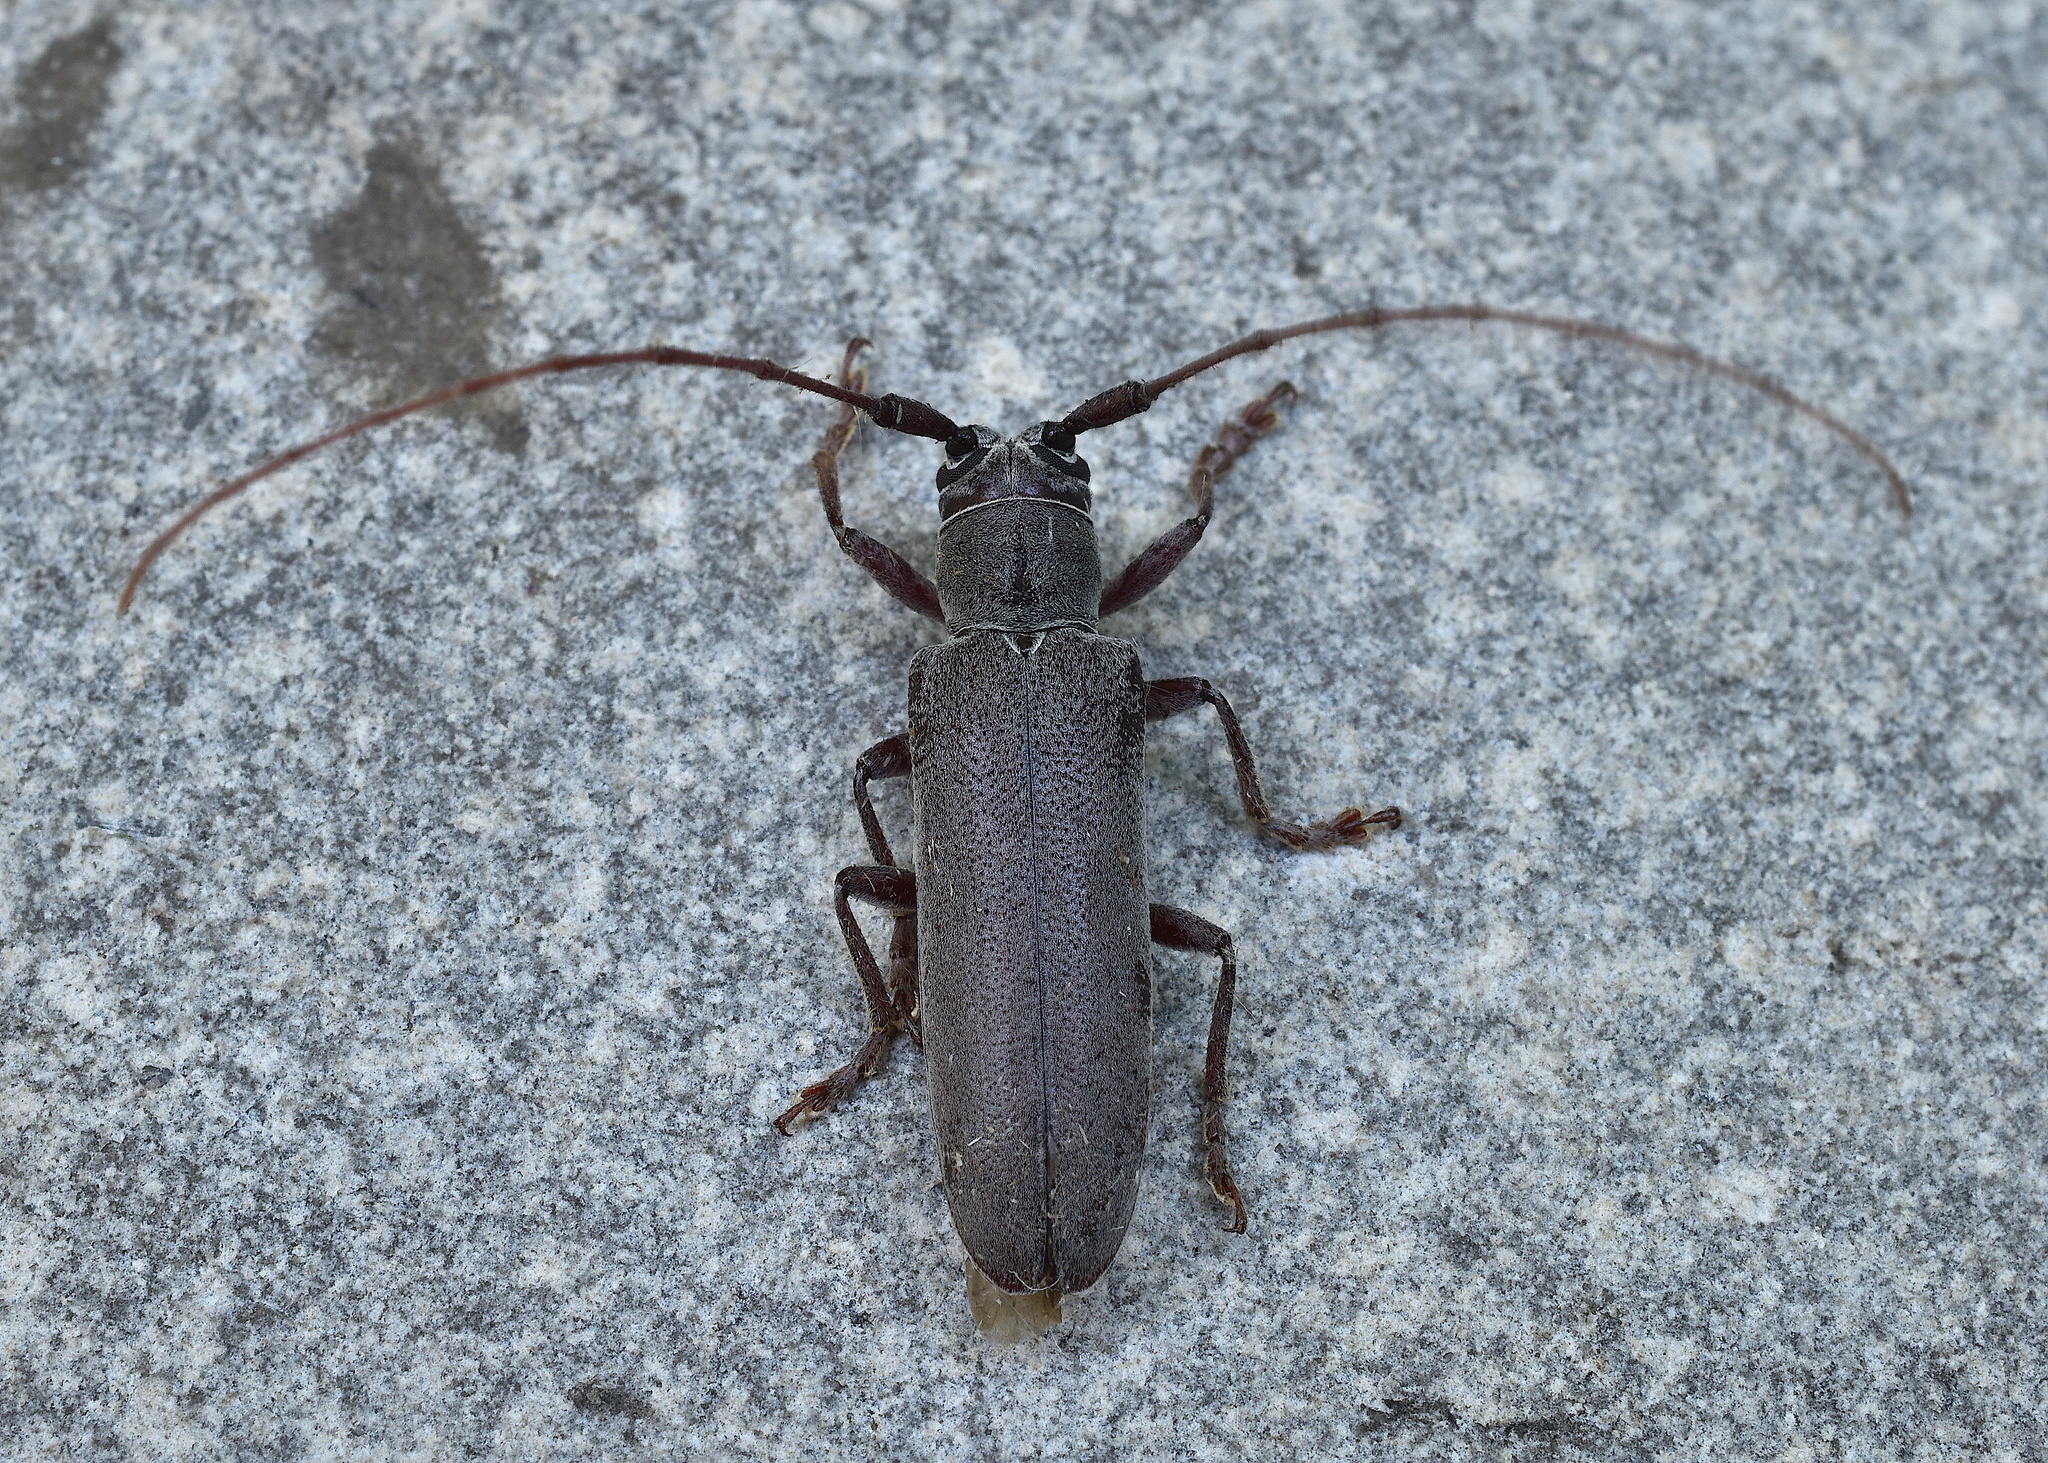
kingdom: Animalia
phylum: Arthropoda
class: Insecta
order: Coleoptera
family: Cerambycidae
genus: Hebestola
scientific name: Hebestola nebulosa
